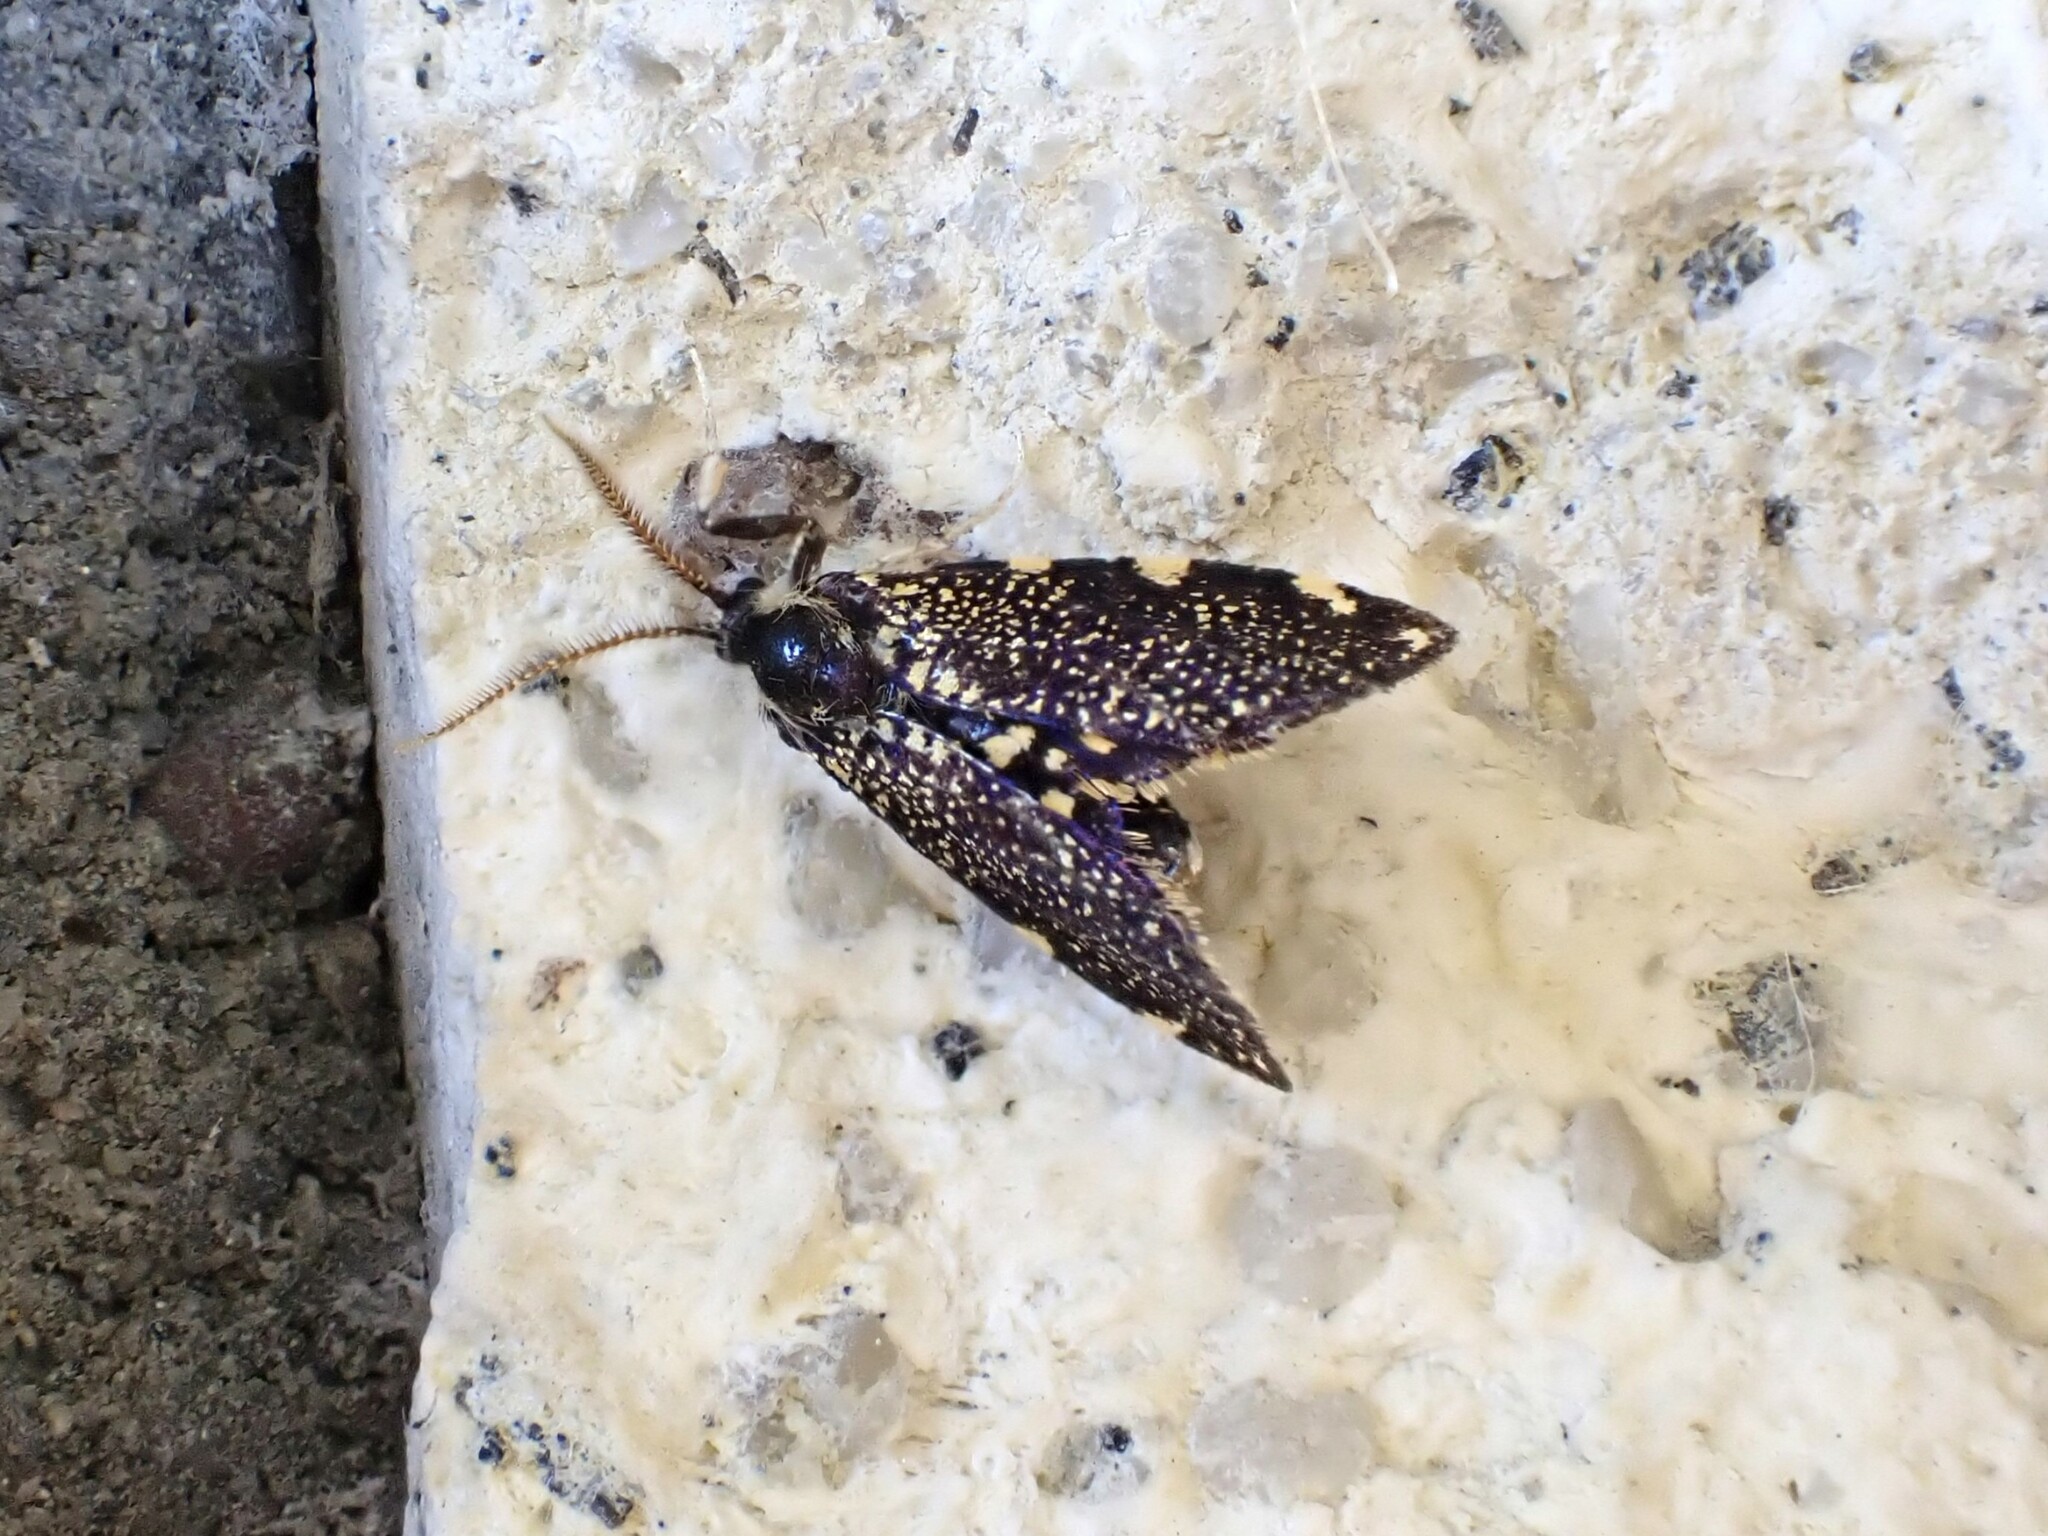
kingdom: Animalia
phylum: Arthropoda
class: Insecta
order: Lepidoptera
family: Psychidae
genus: Cebysa
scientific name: Cebysa leucotelus
